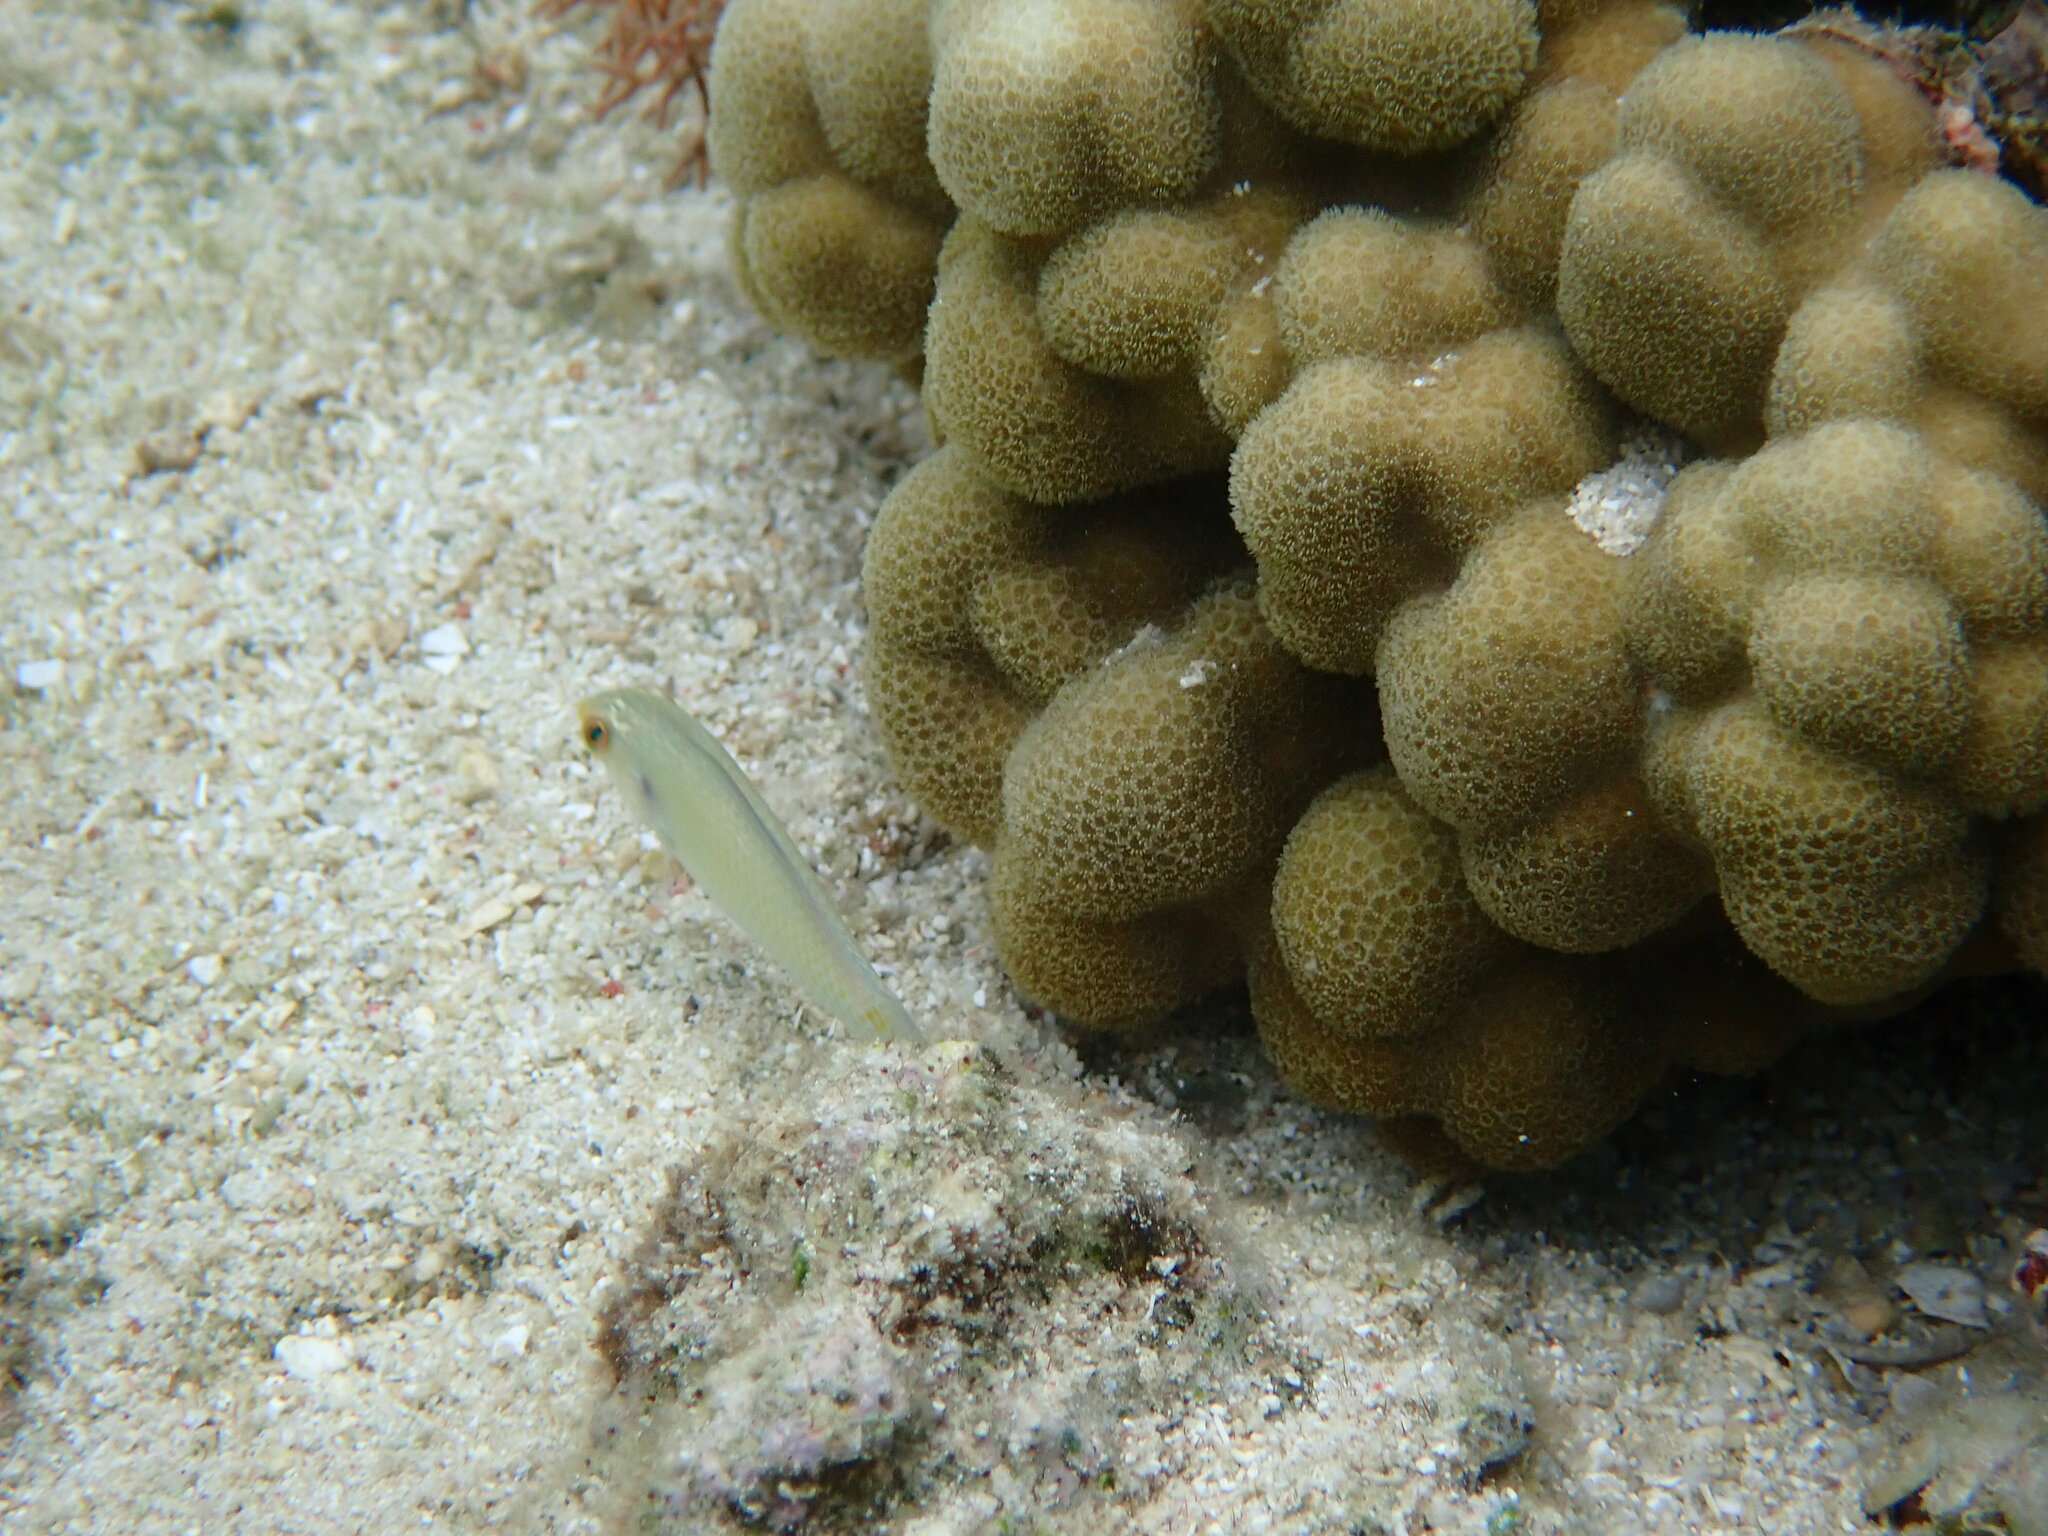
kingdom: Animalia
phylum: Chordata
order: Perciformes
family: Labridae
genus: Halichoeres
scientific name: Halichoeres trimaculatus
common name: Three-spot wrasse
